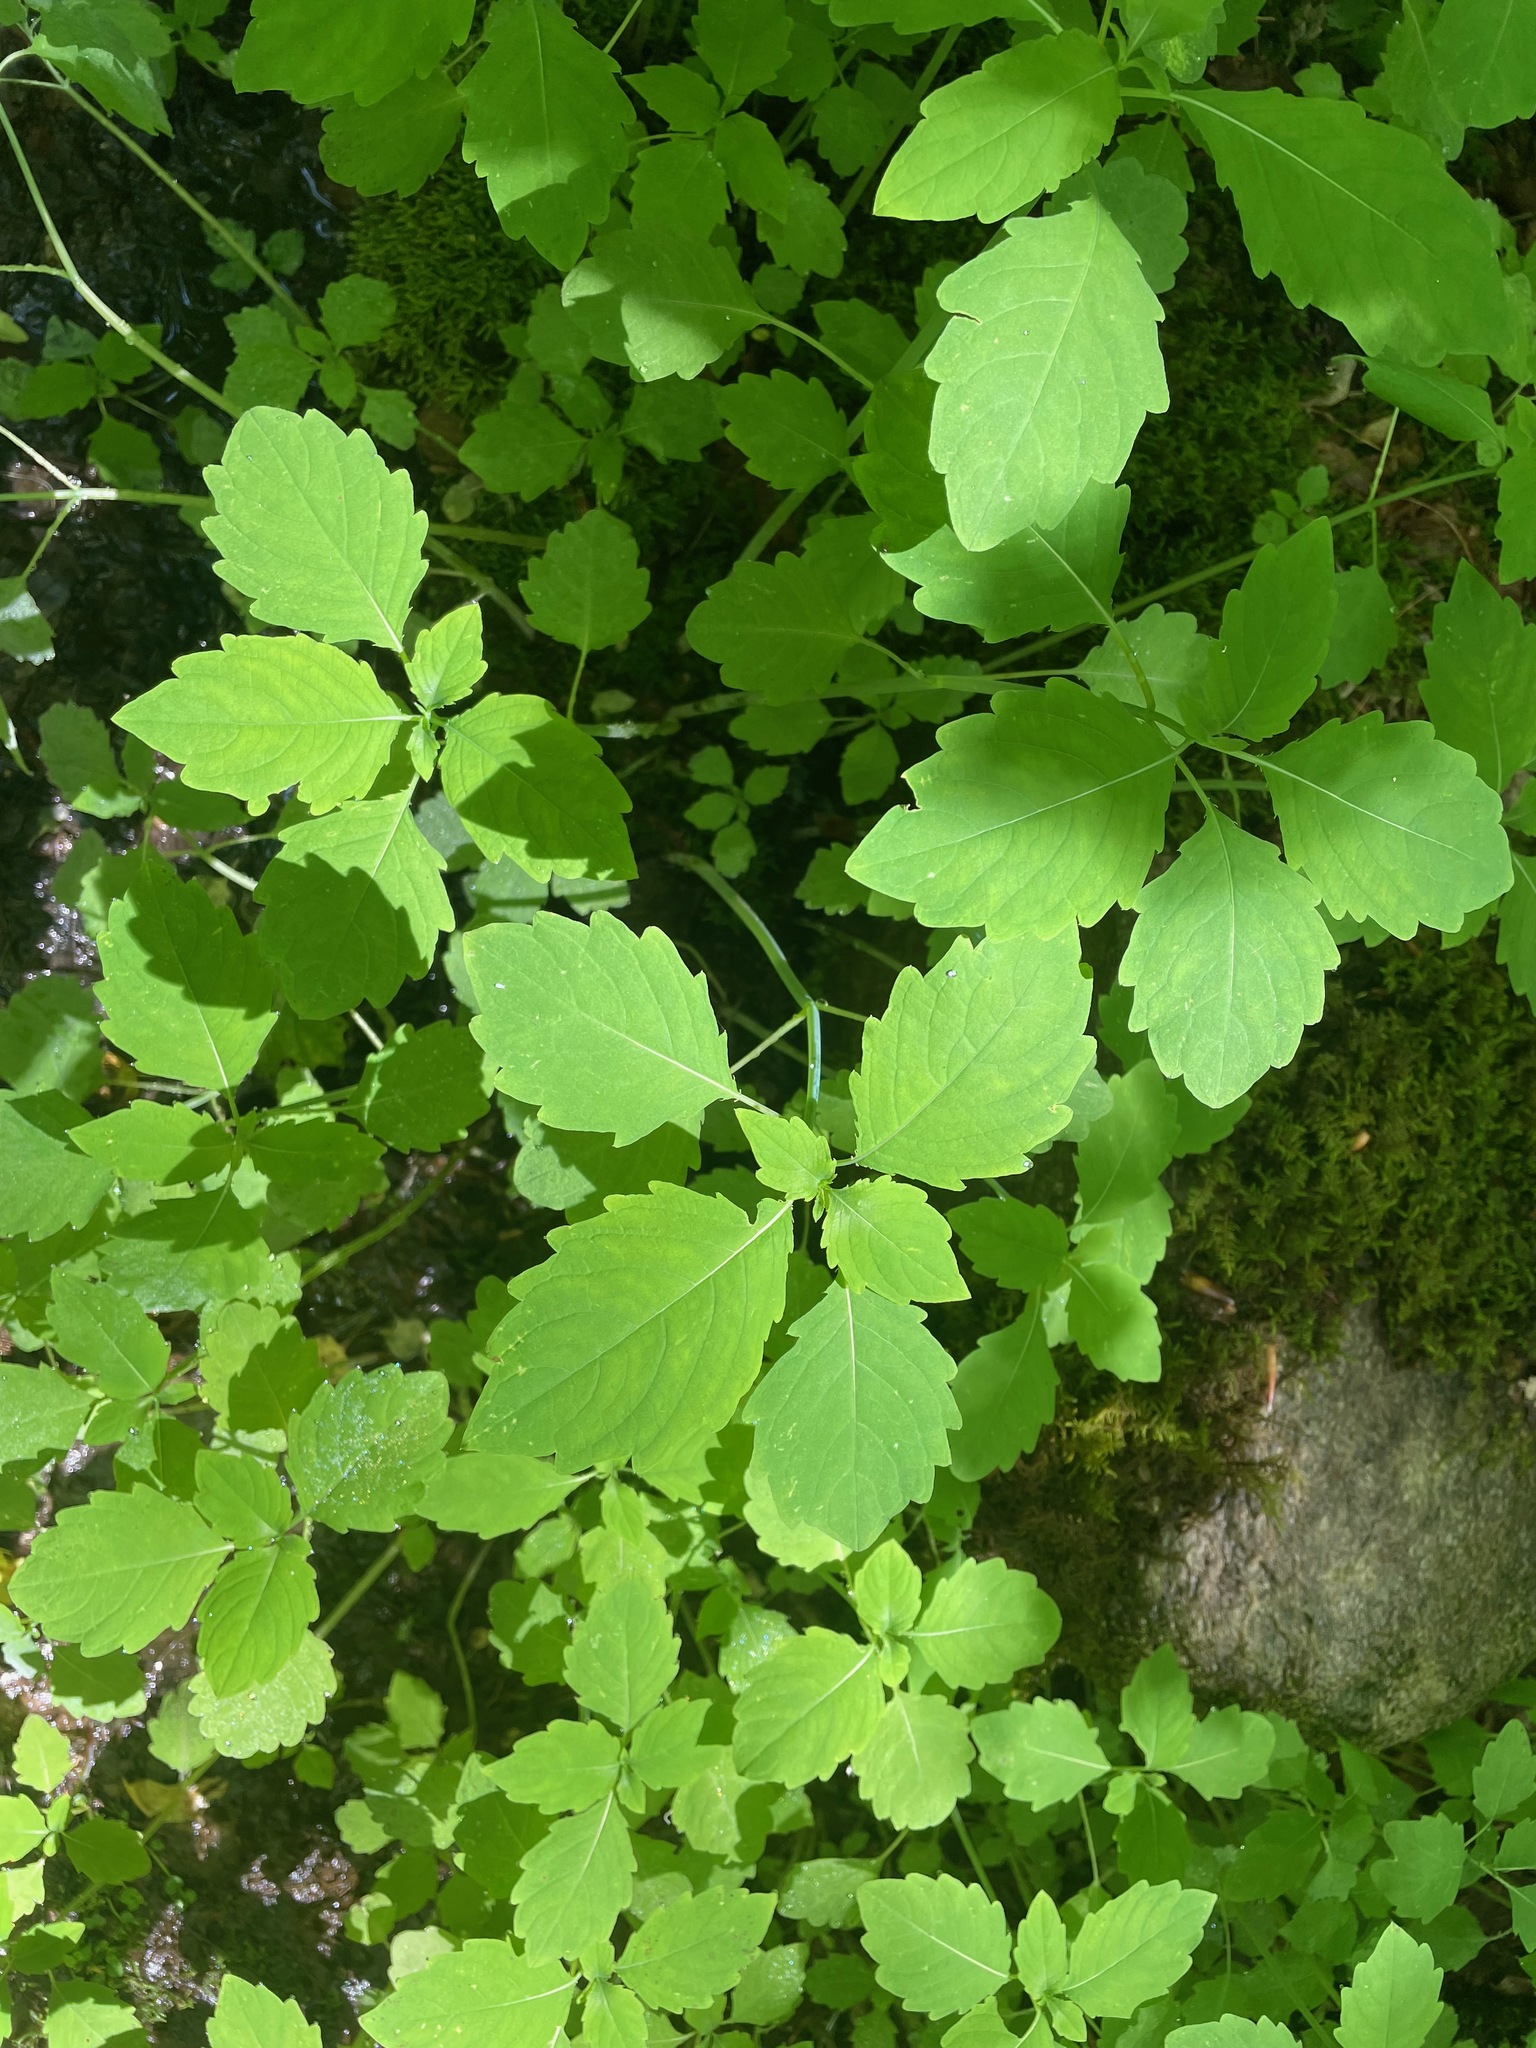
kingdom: Plantae
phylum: Tracheophyta
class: Magnoliopsida
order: Ericales
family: Balsaminaceae
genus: Impatiens
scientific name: Impatiens
